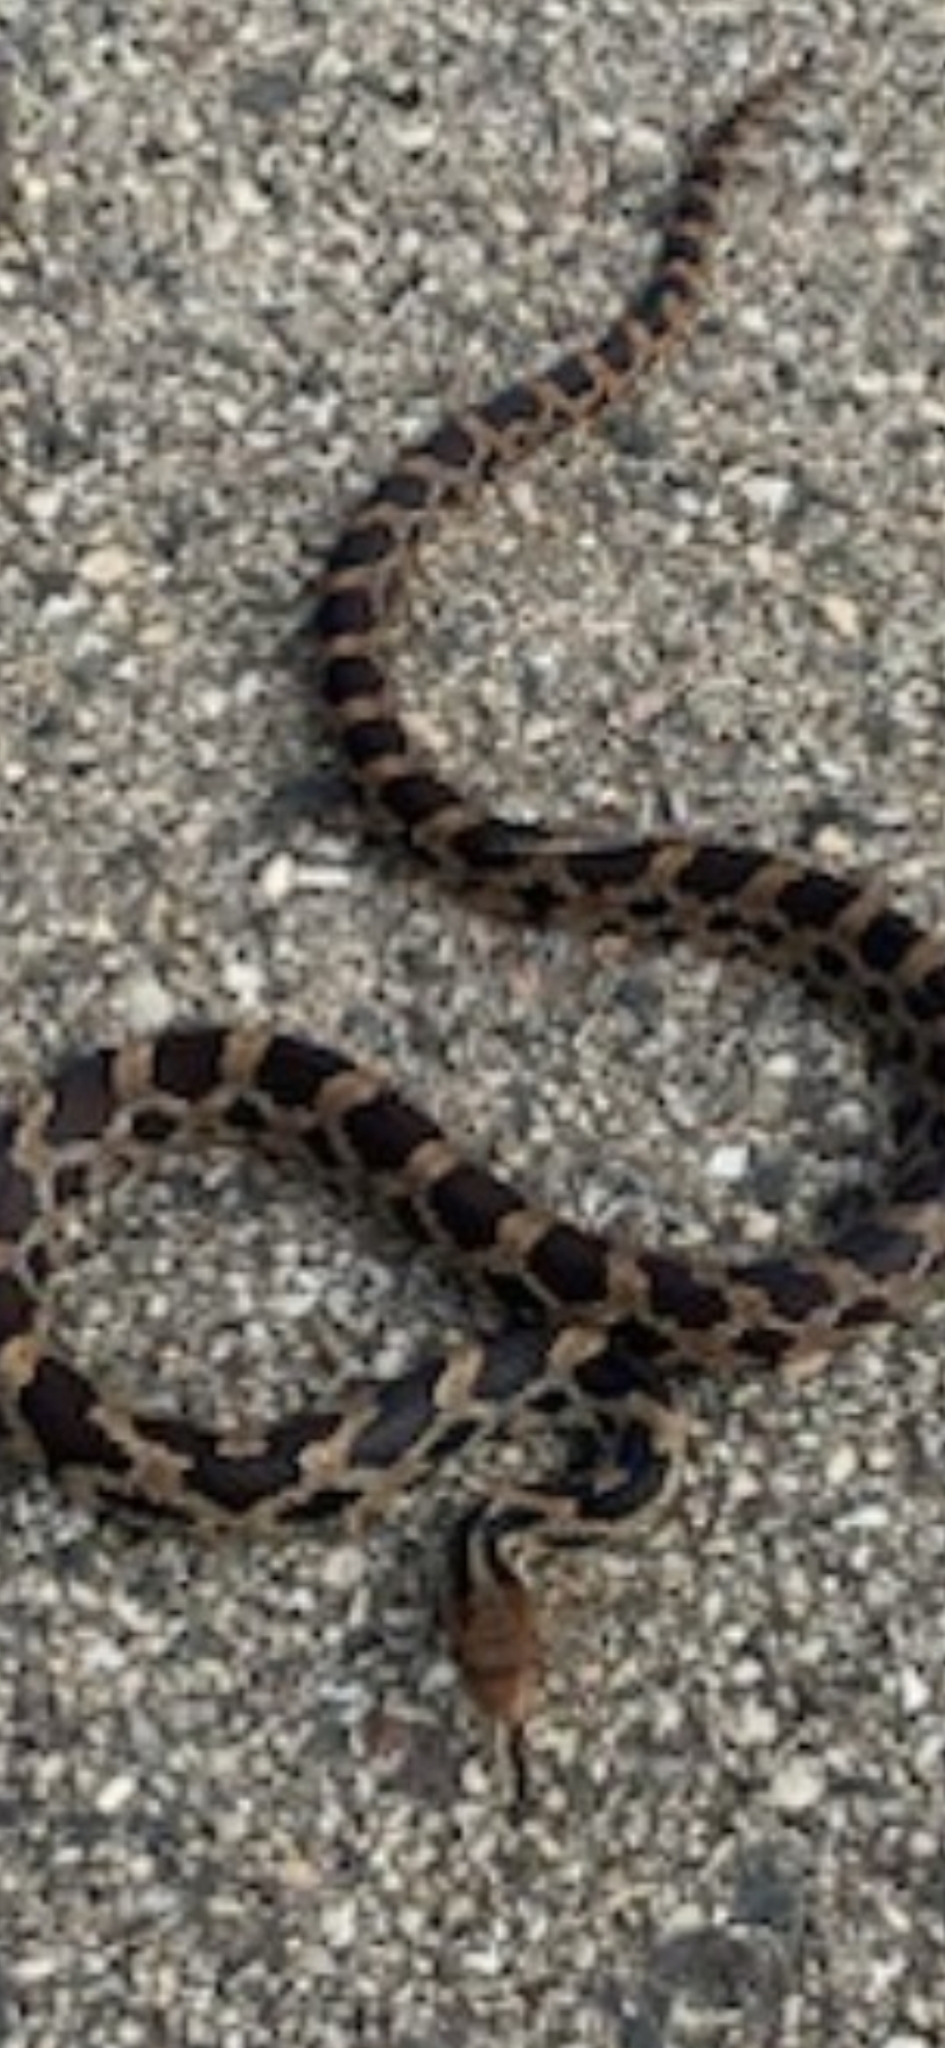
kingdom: Animalia
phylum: Chordata
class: Squamata
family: Colubridae
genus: Pantherophis
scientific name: Pantherophis vulpinus
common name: Eastern fox snake
